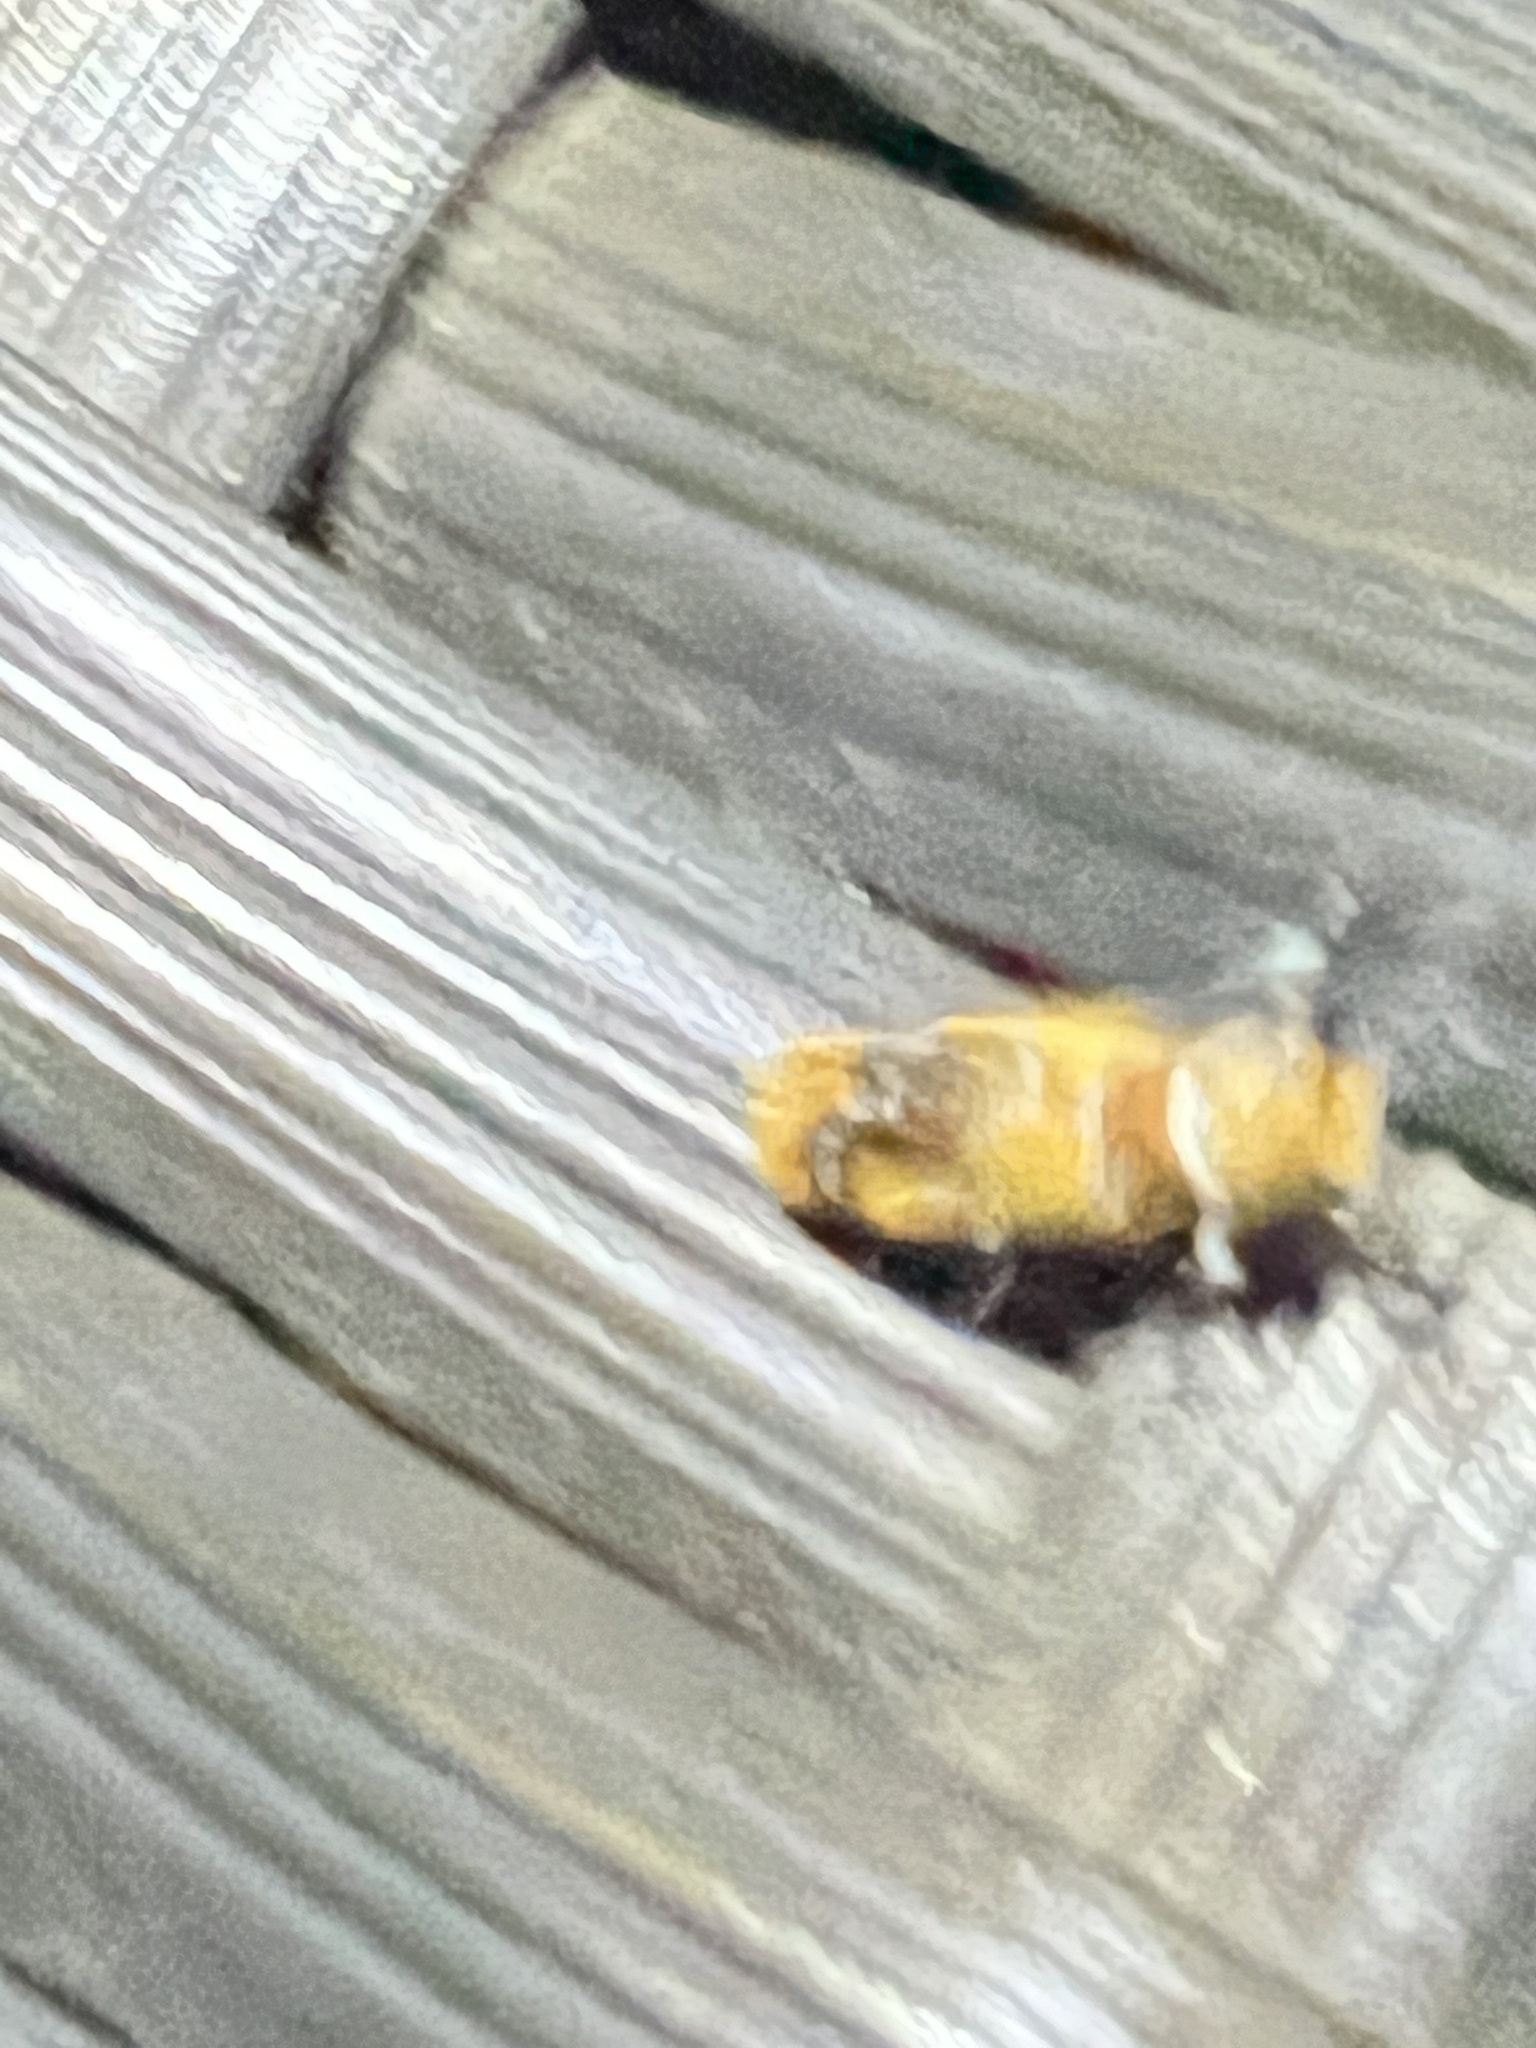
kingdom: Animalia
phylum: Arthropoda
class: Insecta
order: Lepidoptera
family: Oecophoridae
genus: Callima
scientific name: Callima argenticinctella
